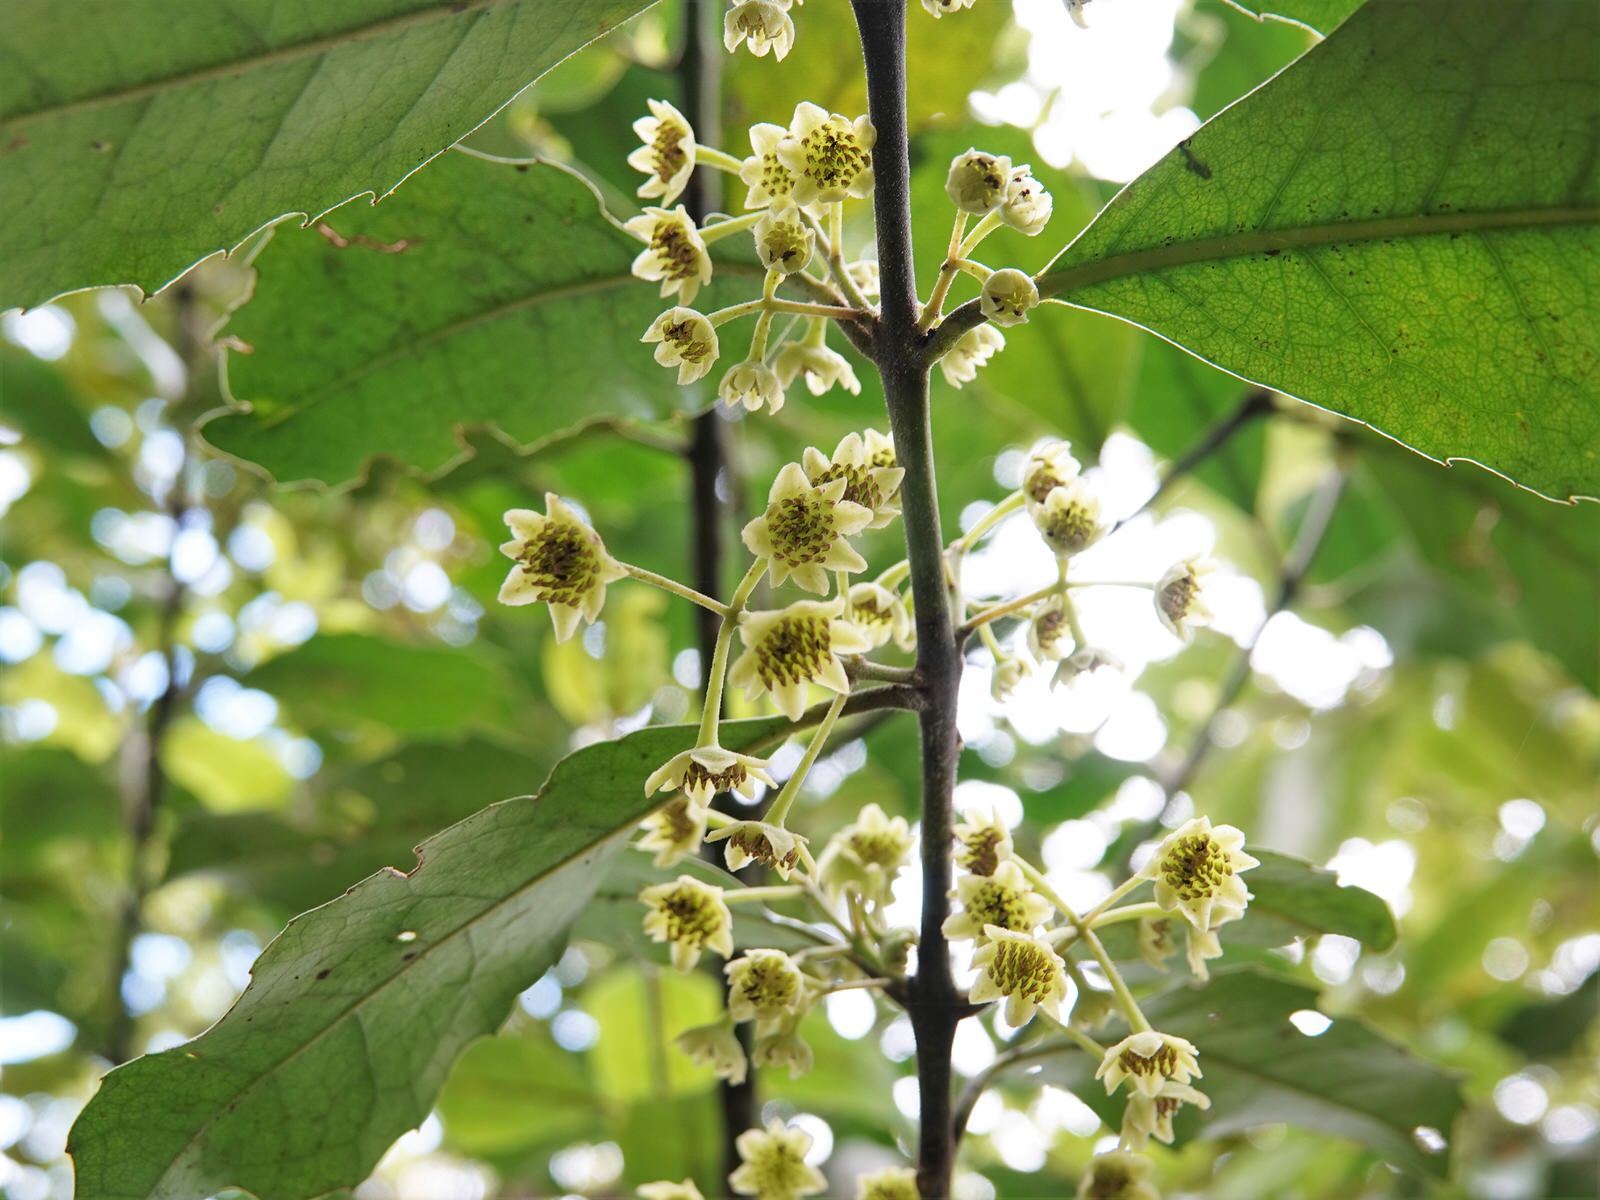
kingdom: Plantae
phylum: Tracheophyta
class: Magnoliopsida
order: Laurales
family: Monimiaceae
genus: Hedycarya
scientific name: Hedycarya arborea
